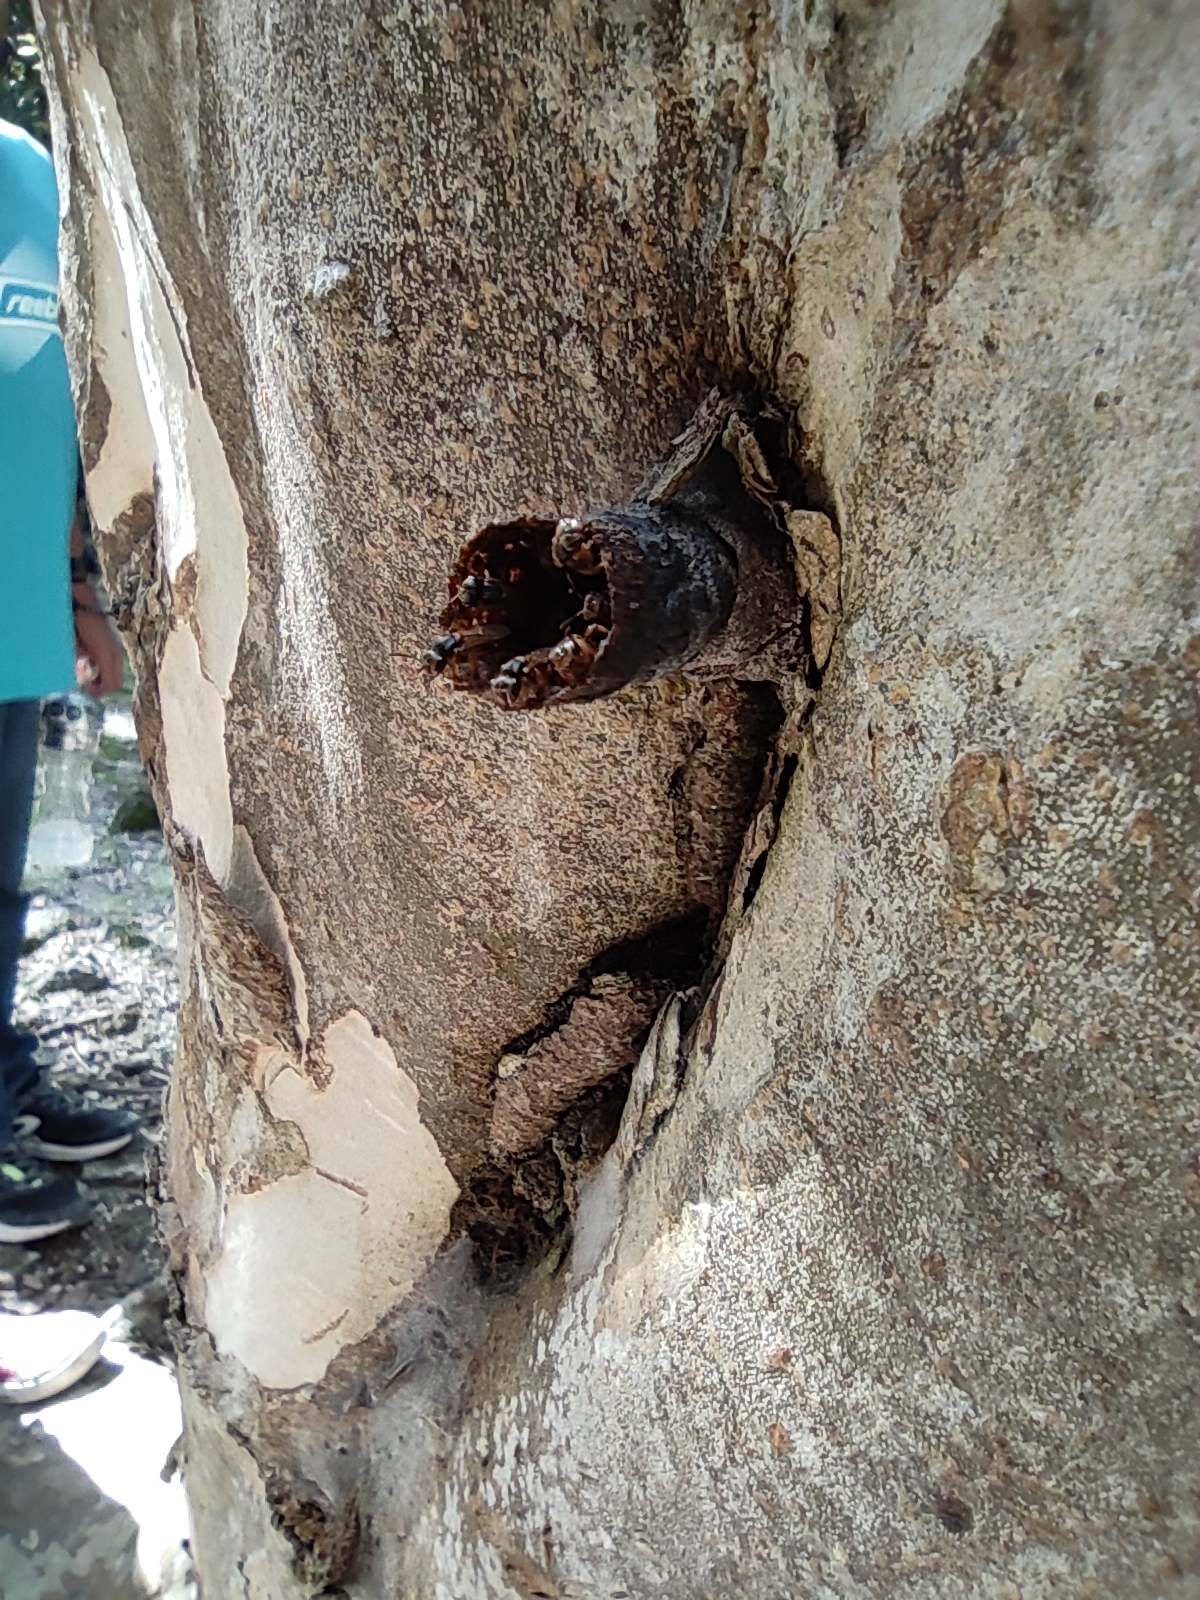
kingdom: Animalia
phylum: Arthropoda
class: Insecta
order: Hymenoptera
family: Apidae
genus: Scaptotrigona
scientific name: Scaptotrigona pectoralis
